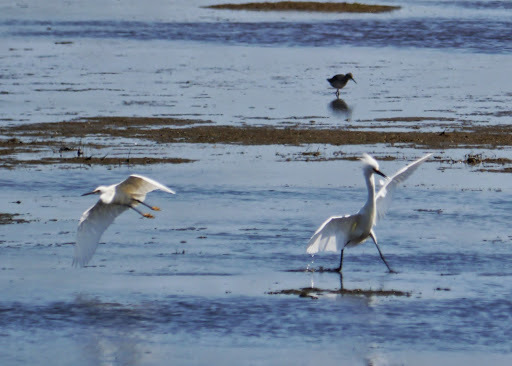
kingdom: Animalia
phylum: Chordata
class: Aves
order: Pelecaniformes
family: Ardeidae
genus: Egretta
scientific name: Egretta thula
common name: Snowy egret
